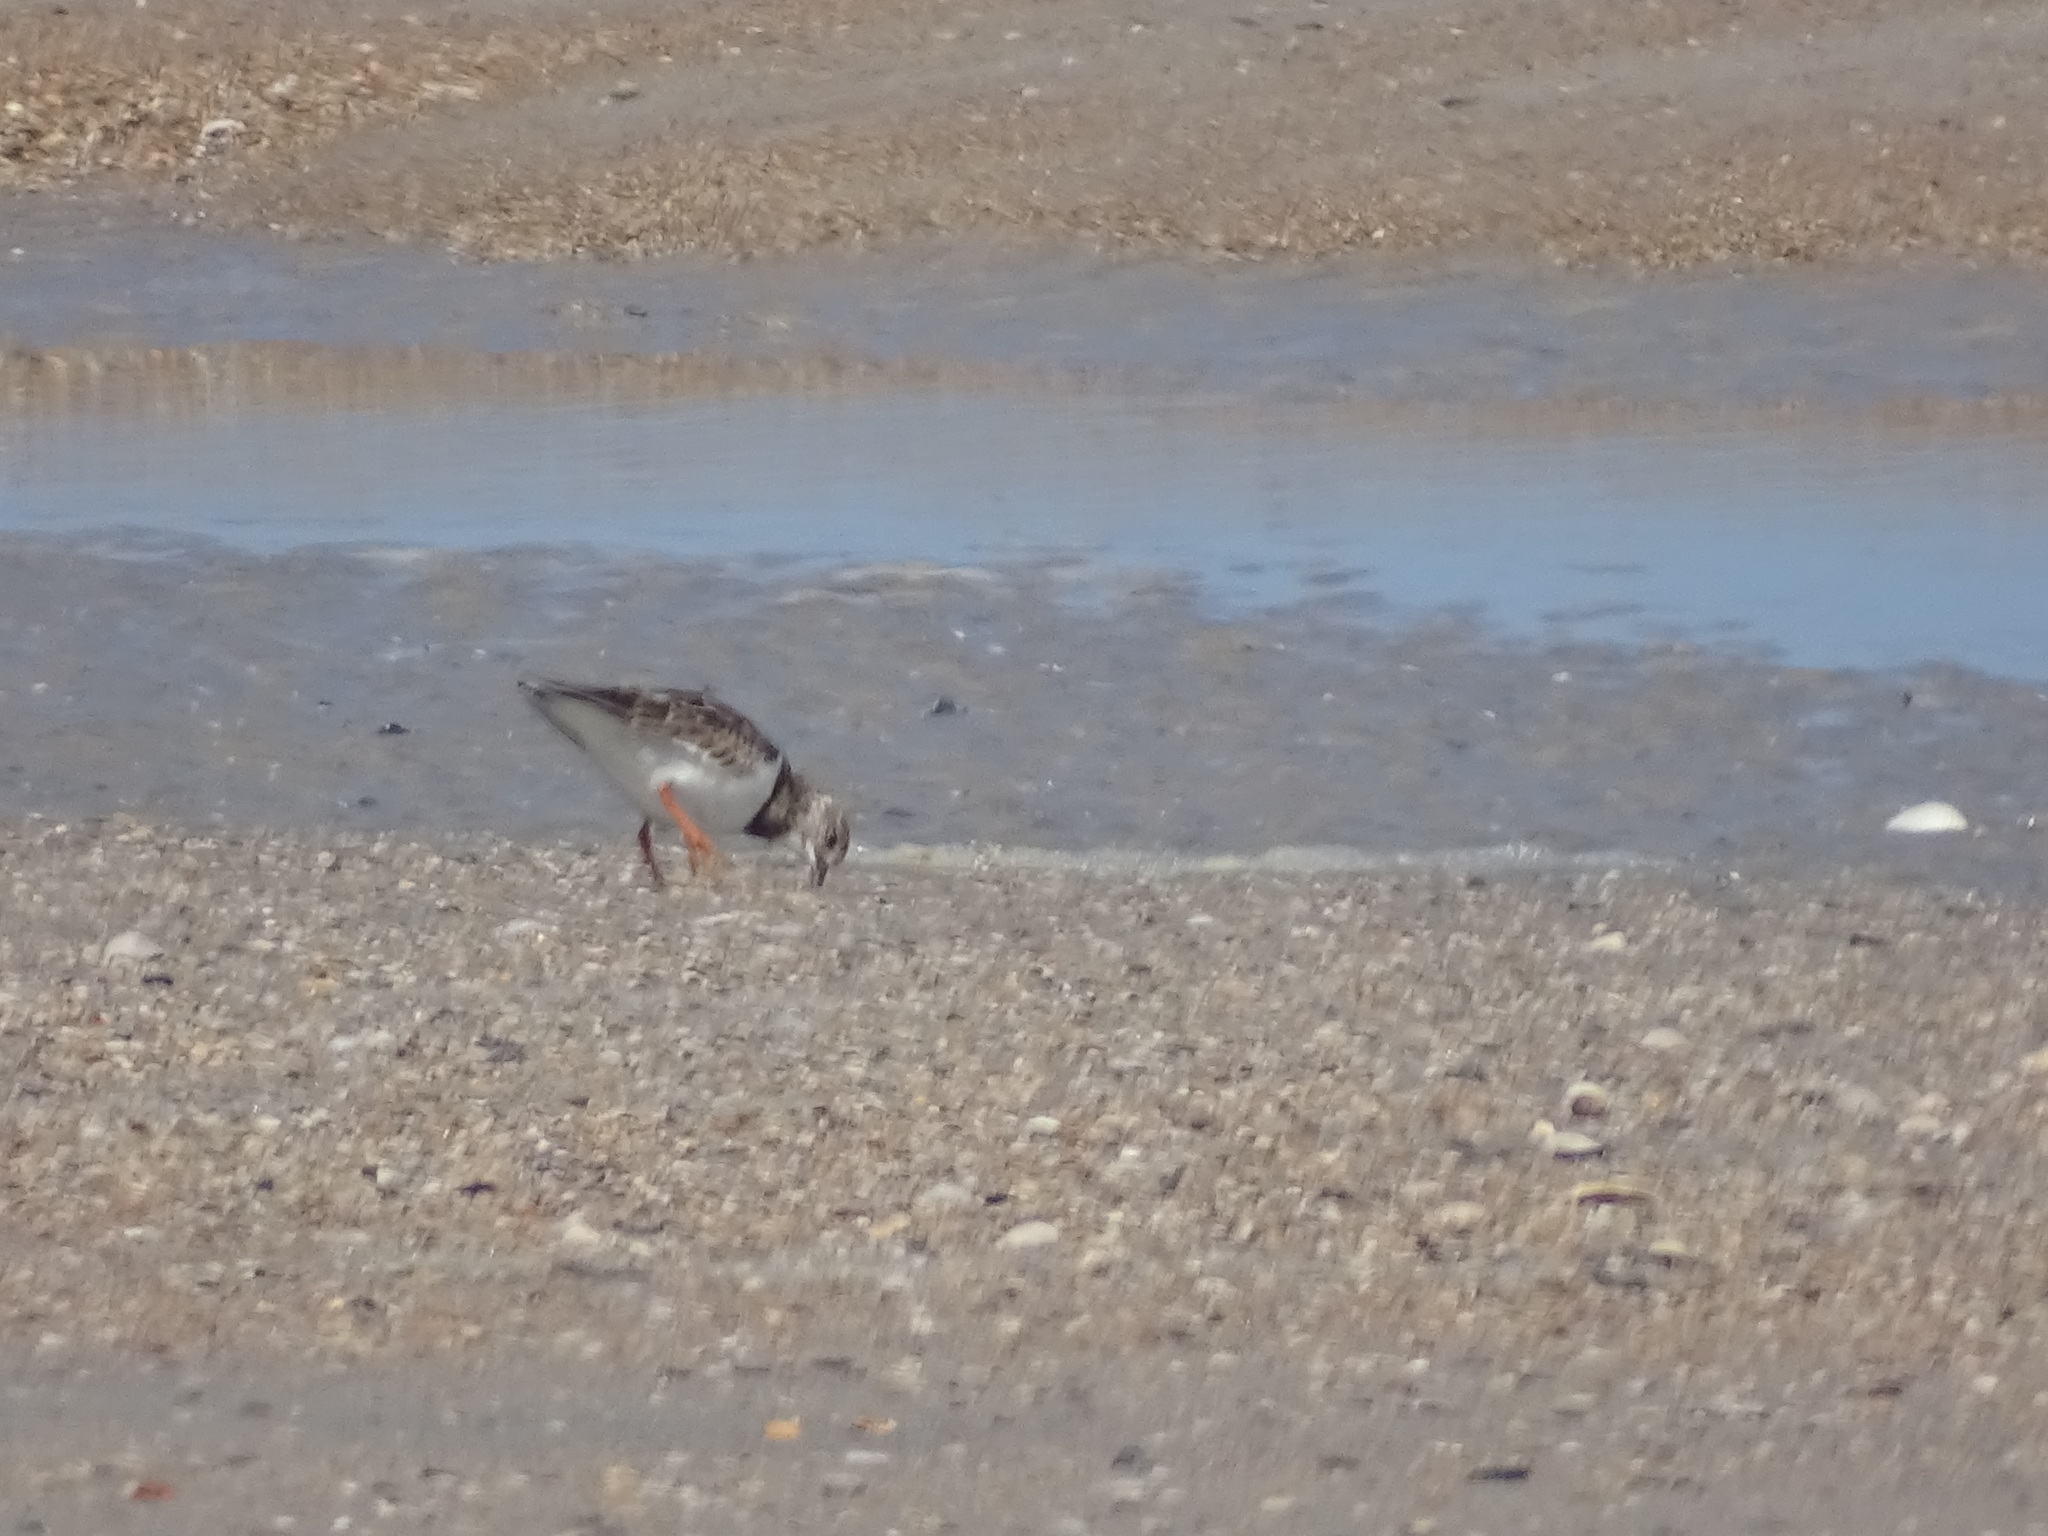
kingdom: Animalia
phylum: Chordata
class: Aves
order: Charadriiformes
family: Scolopacidae
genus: Arenaria
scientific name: Arenaria interpres
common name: Ruddy turnstone
